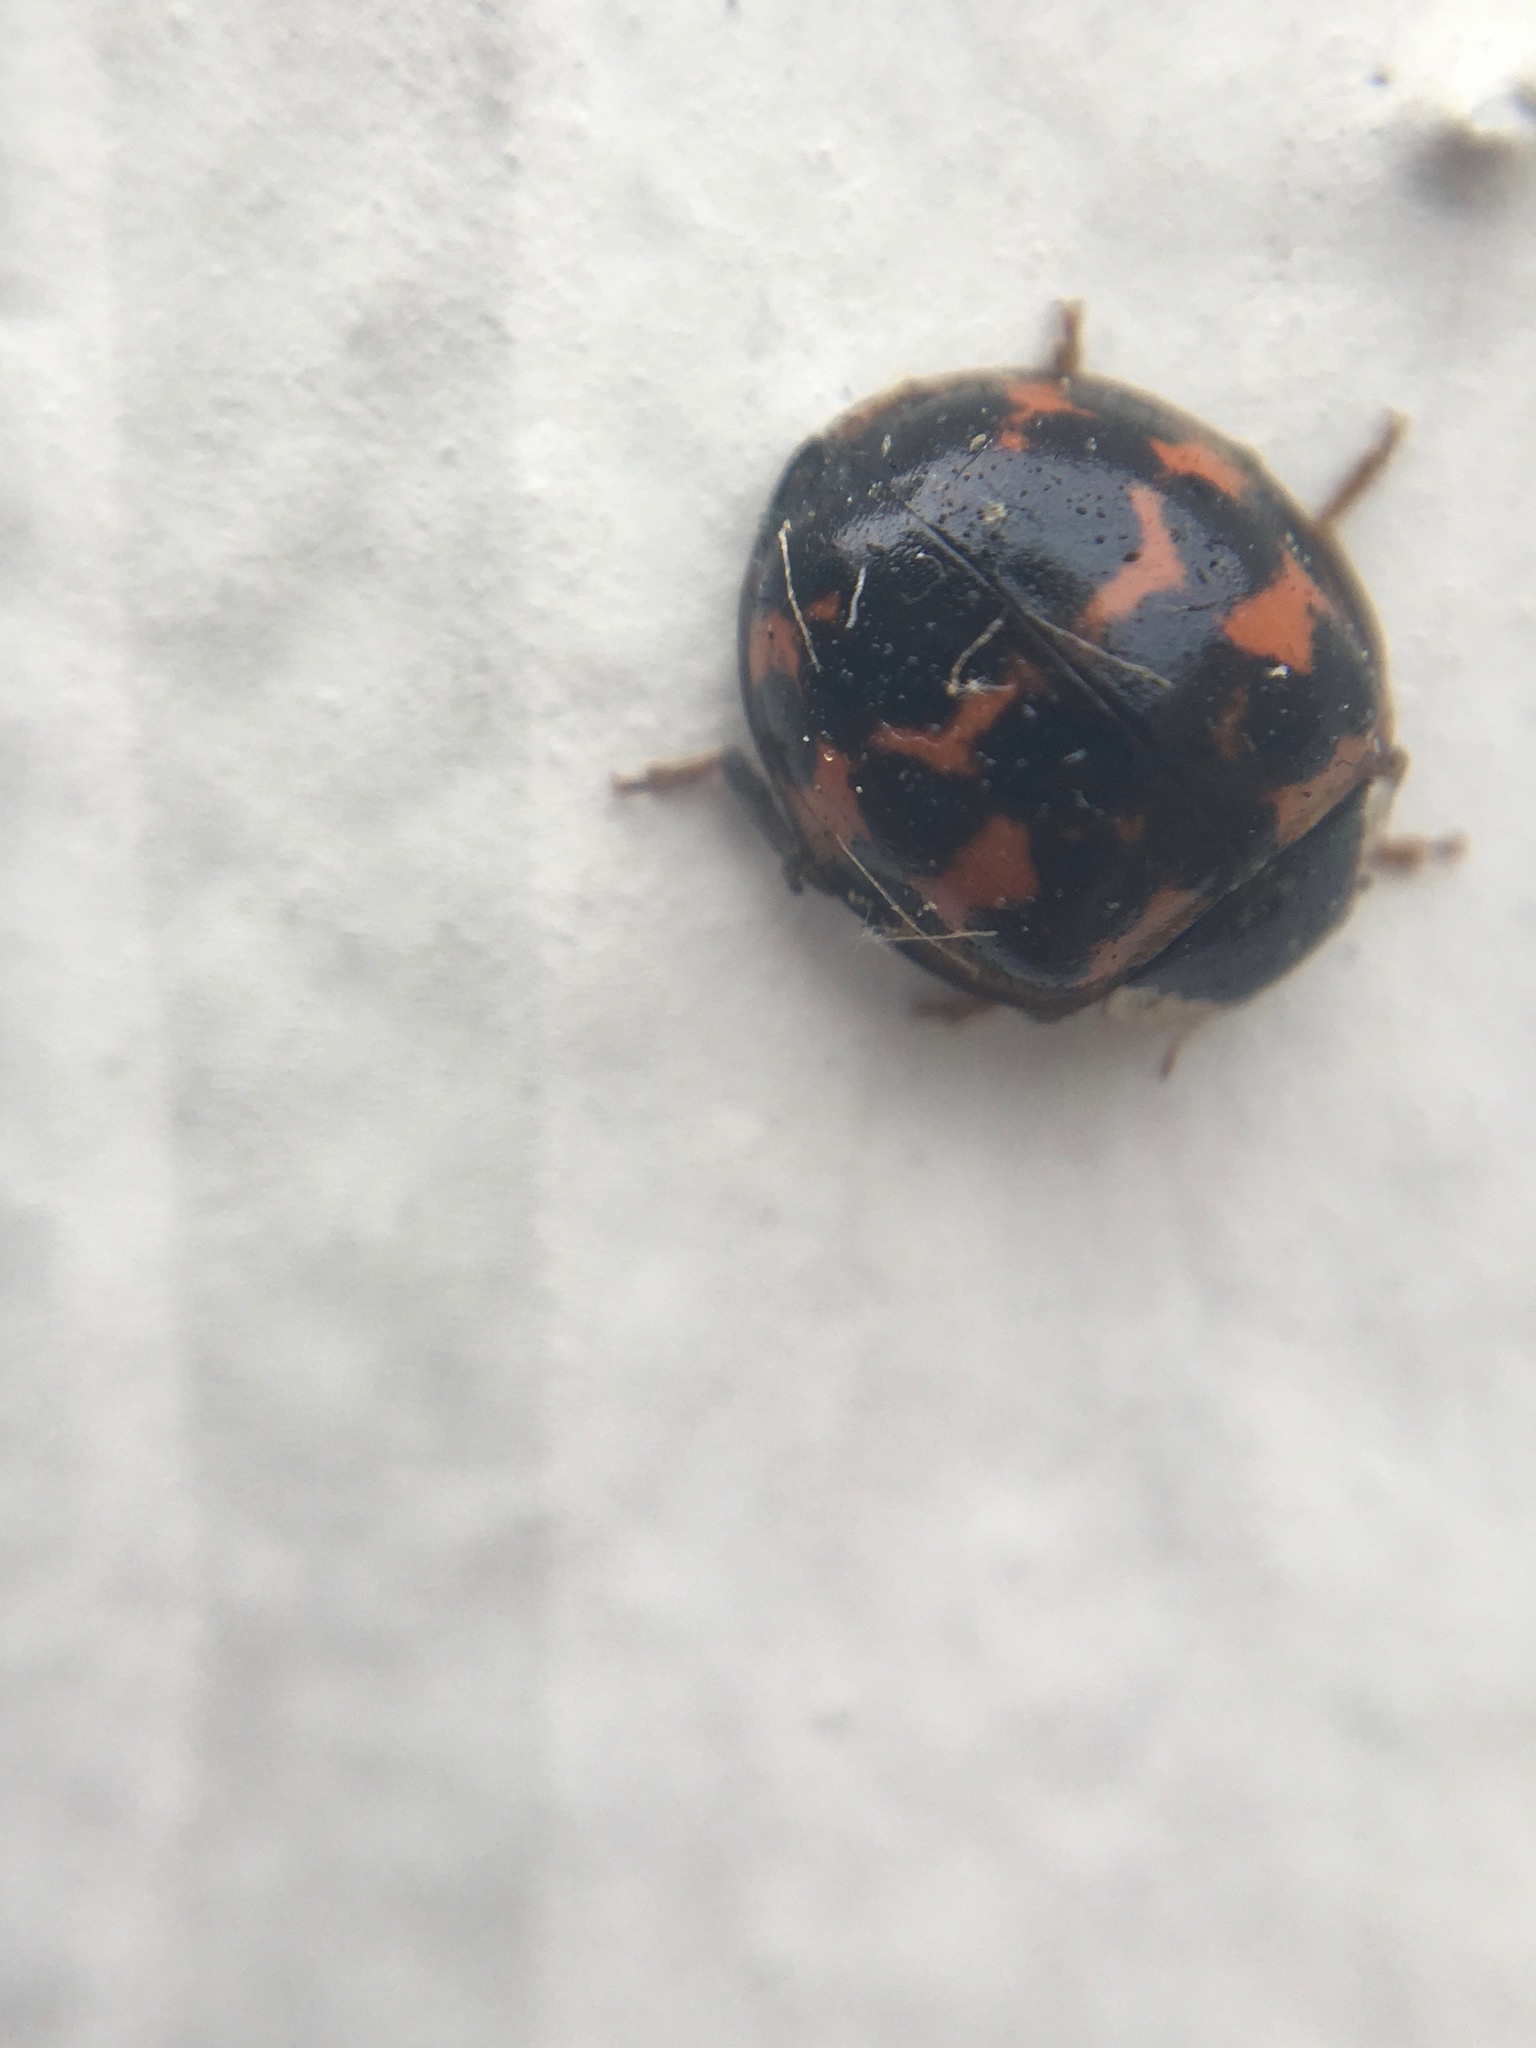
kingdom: Animalia
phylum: Arthropoda
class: Insecta
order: Coleoptera
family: Coccinellidae
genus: Harmonia
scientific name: Harmonia axyridis
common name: Harlequin ladybird
